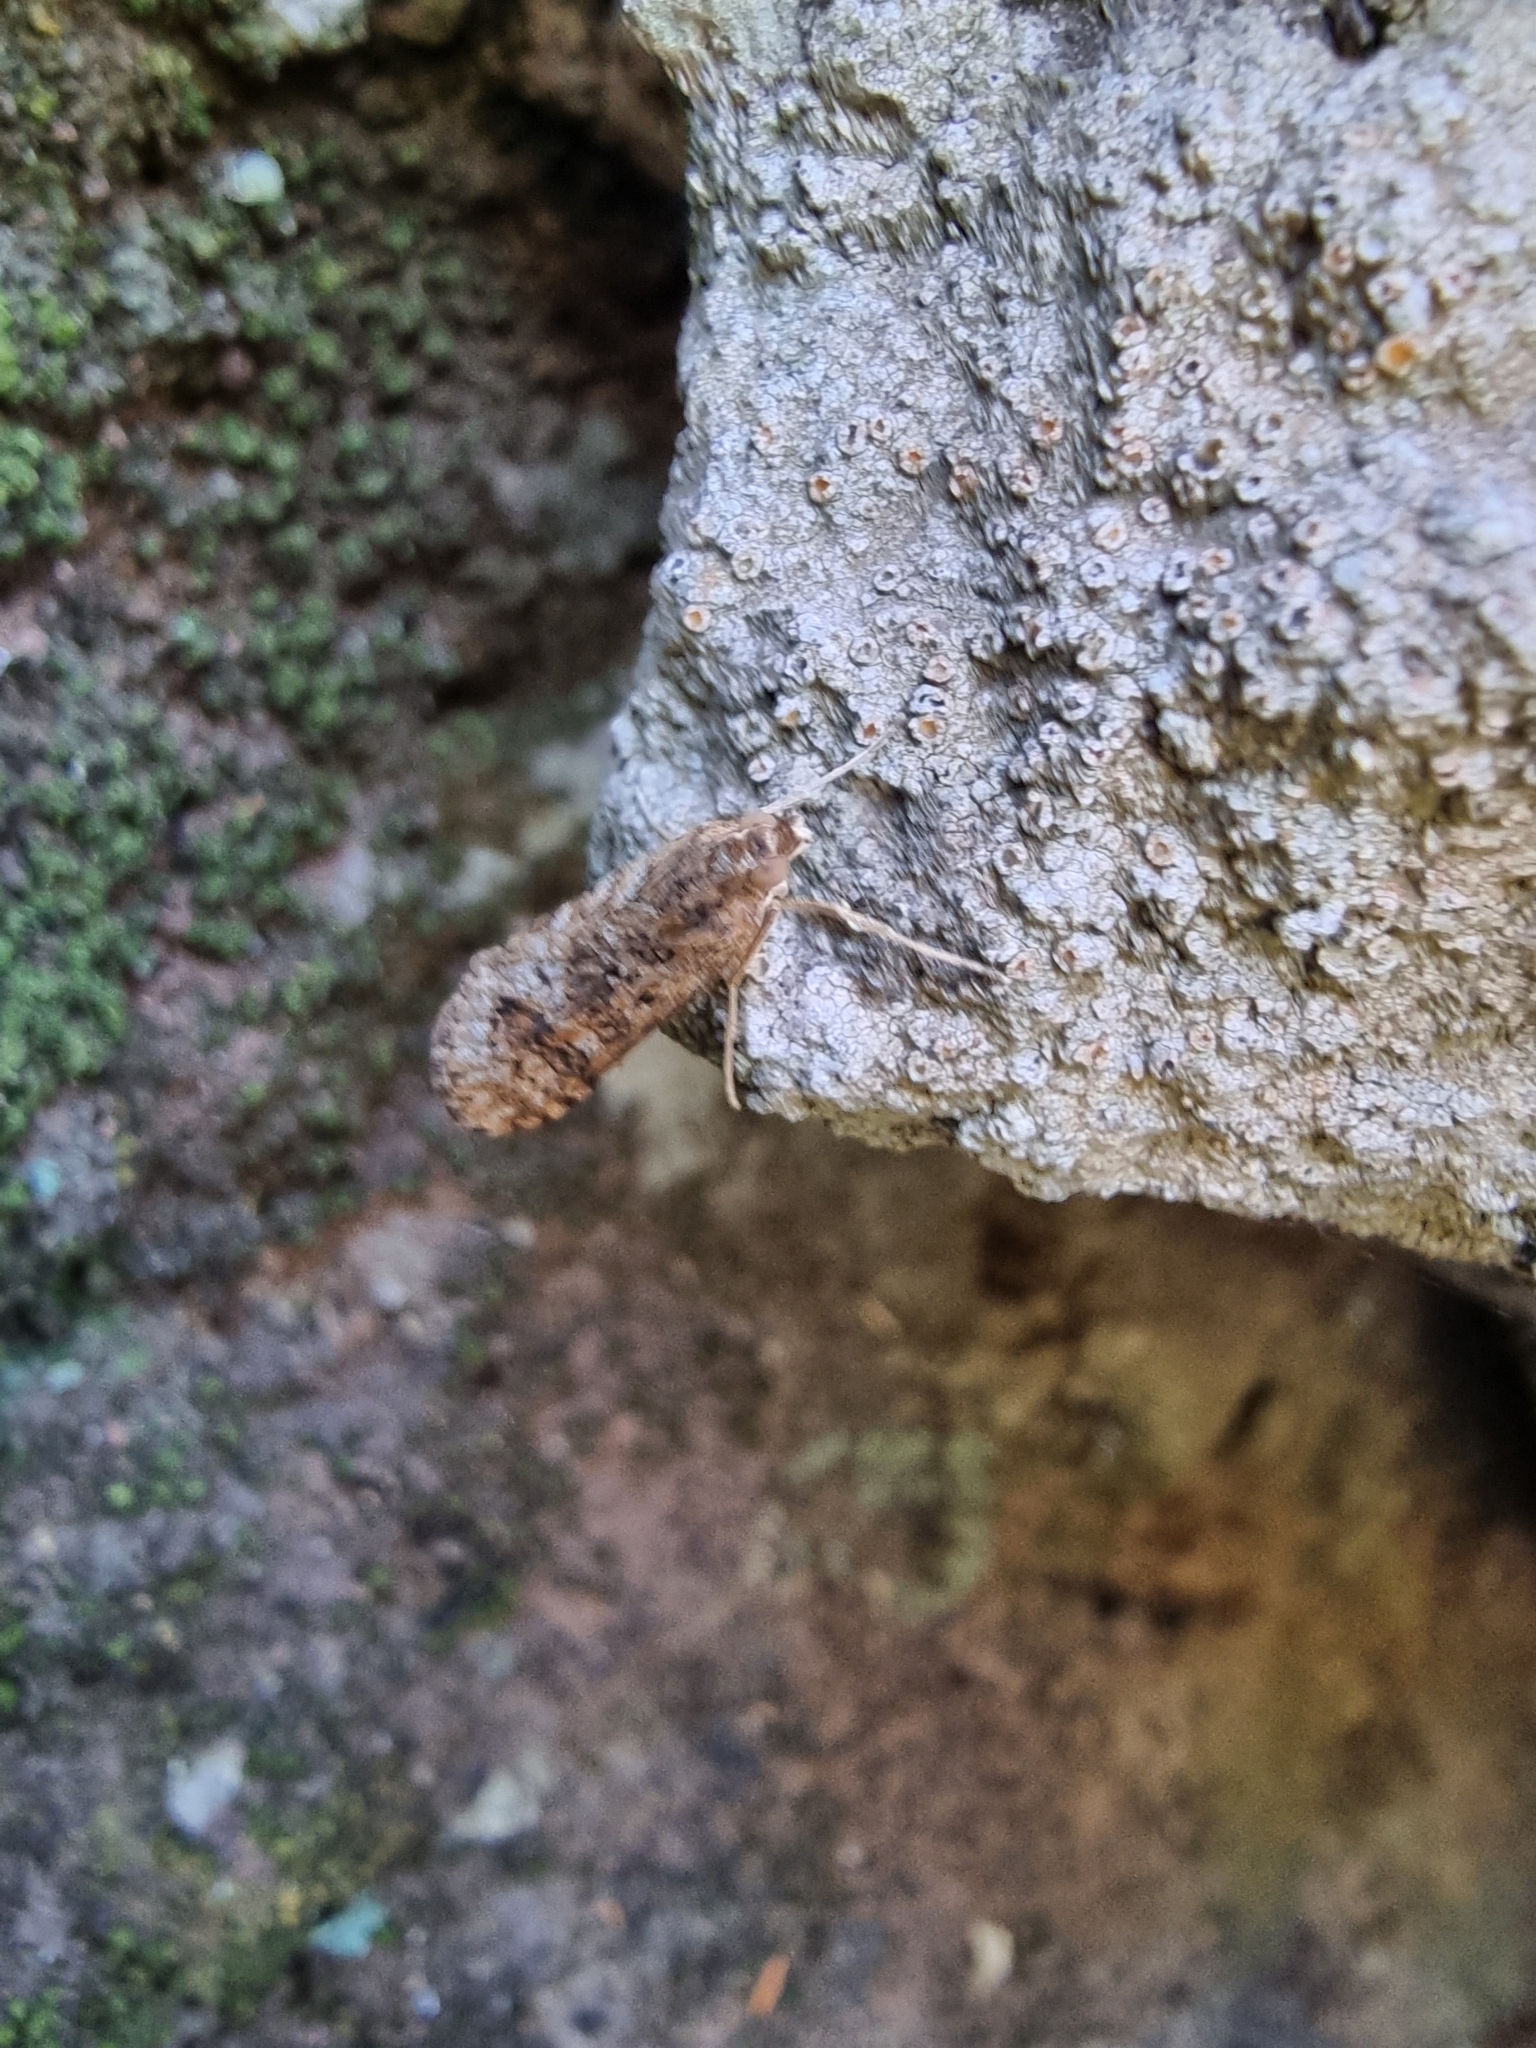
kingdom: Animalia
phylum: Arthropoda
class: Insecta
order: Lepidoptera
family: Crambidae
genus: Nomophila
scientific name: Nomophila noctuella
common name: Rush veneer
